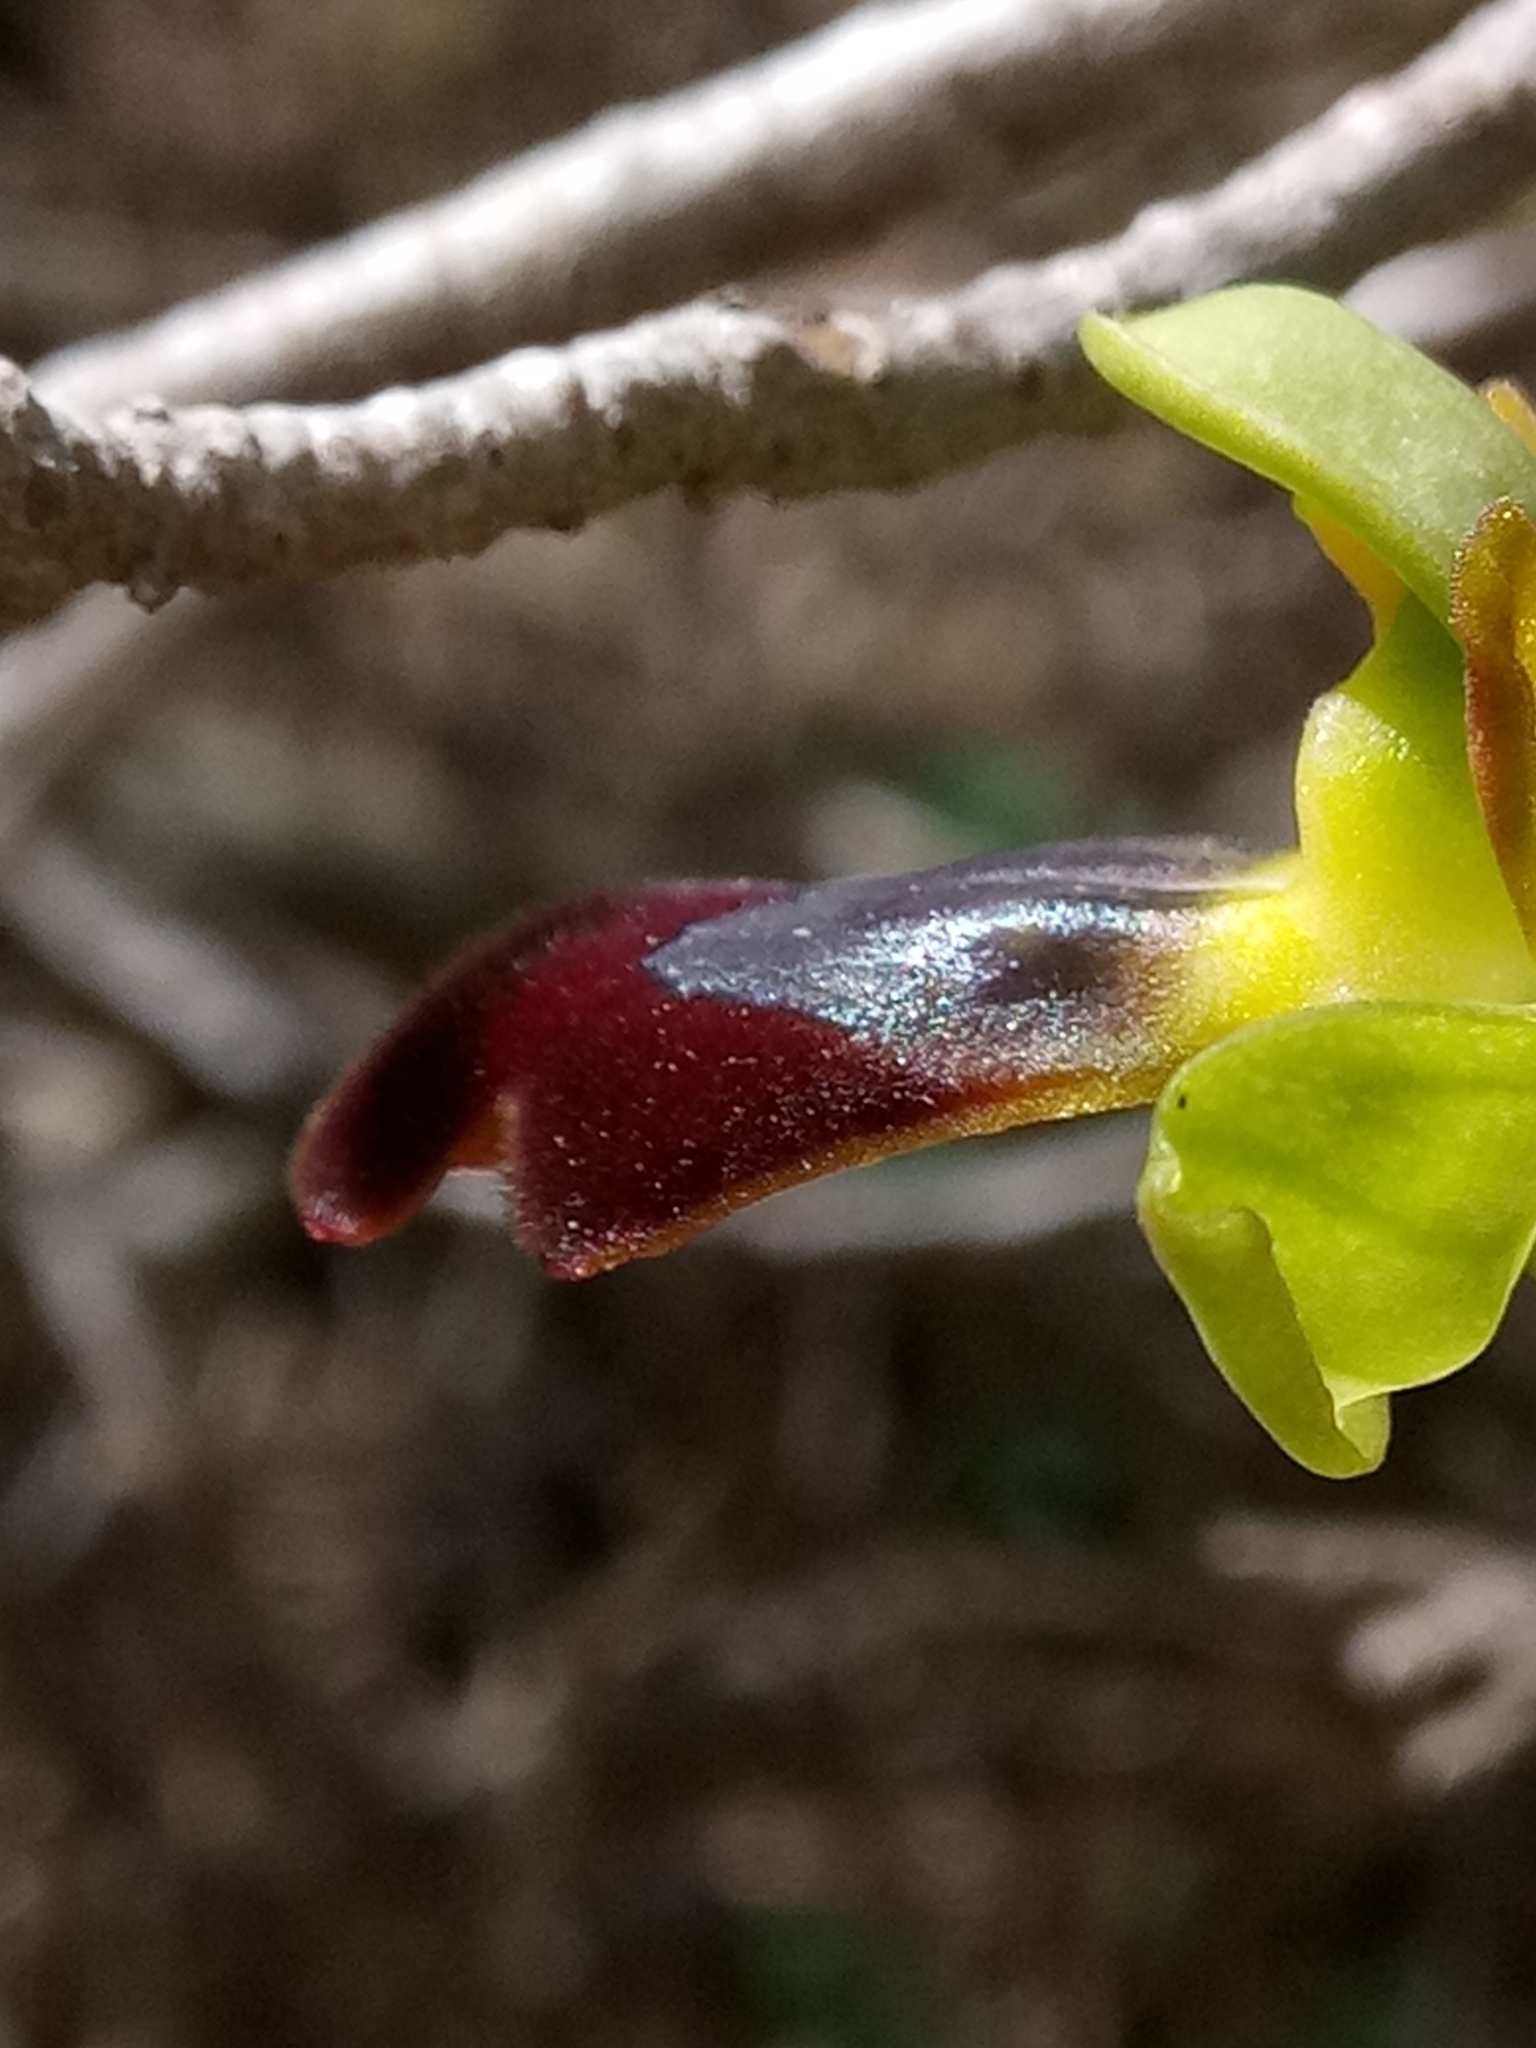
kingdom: Plantae
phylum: Tracheophyta
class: Liliopsida
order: Asparagales
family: Orchidaceae
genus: Ophrys
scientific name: Ophrys fusca
